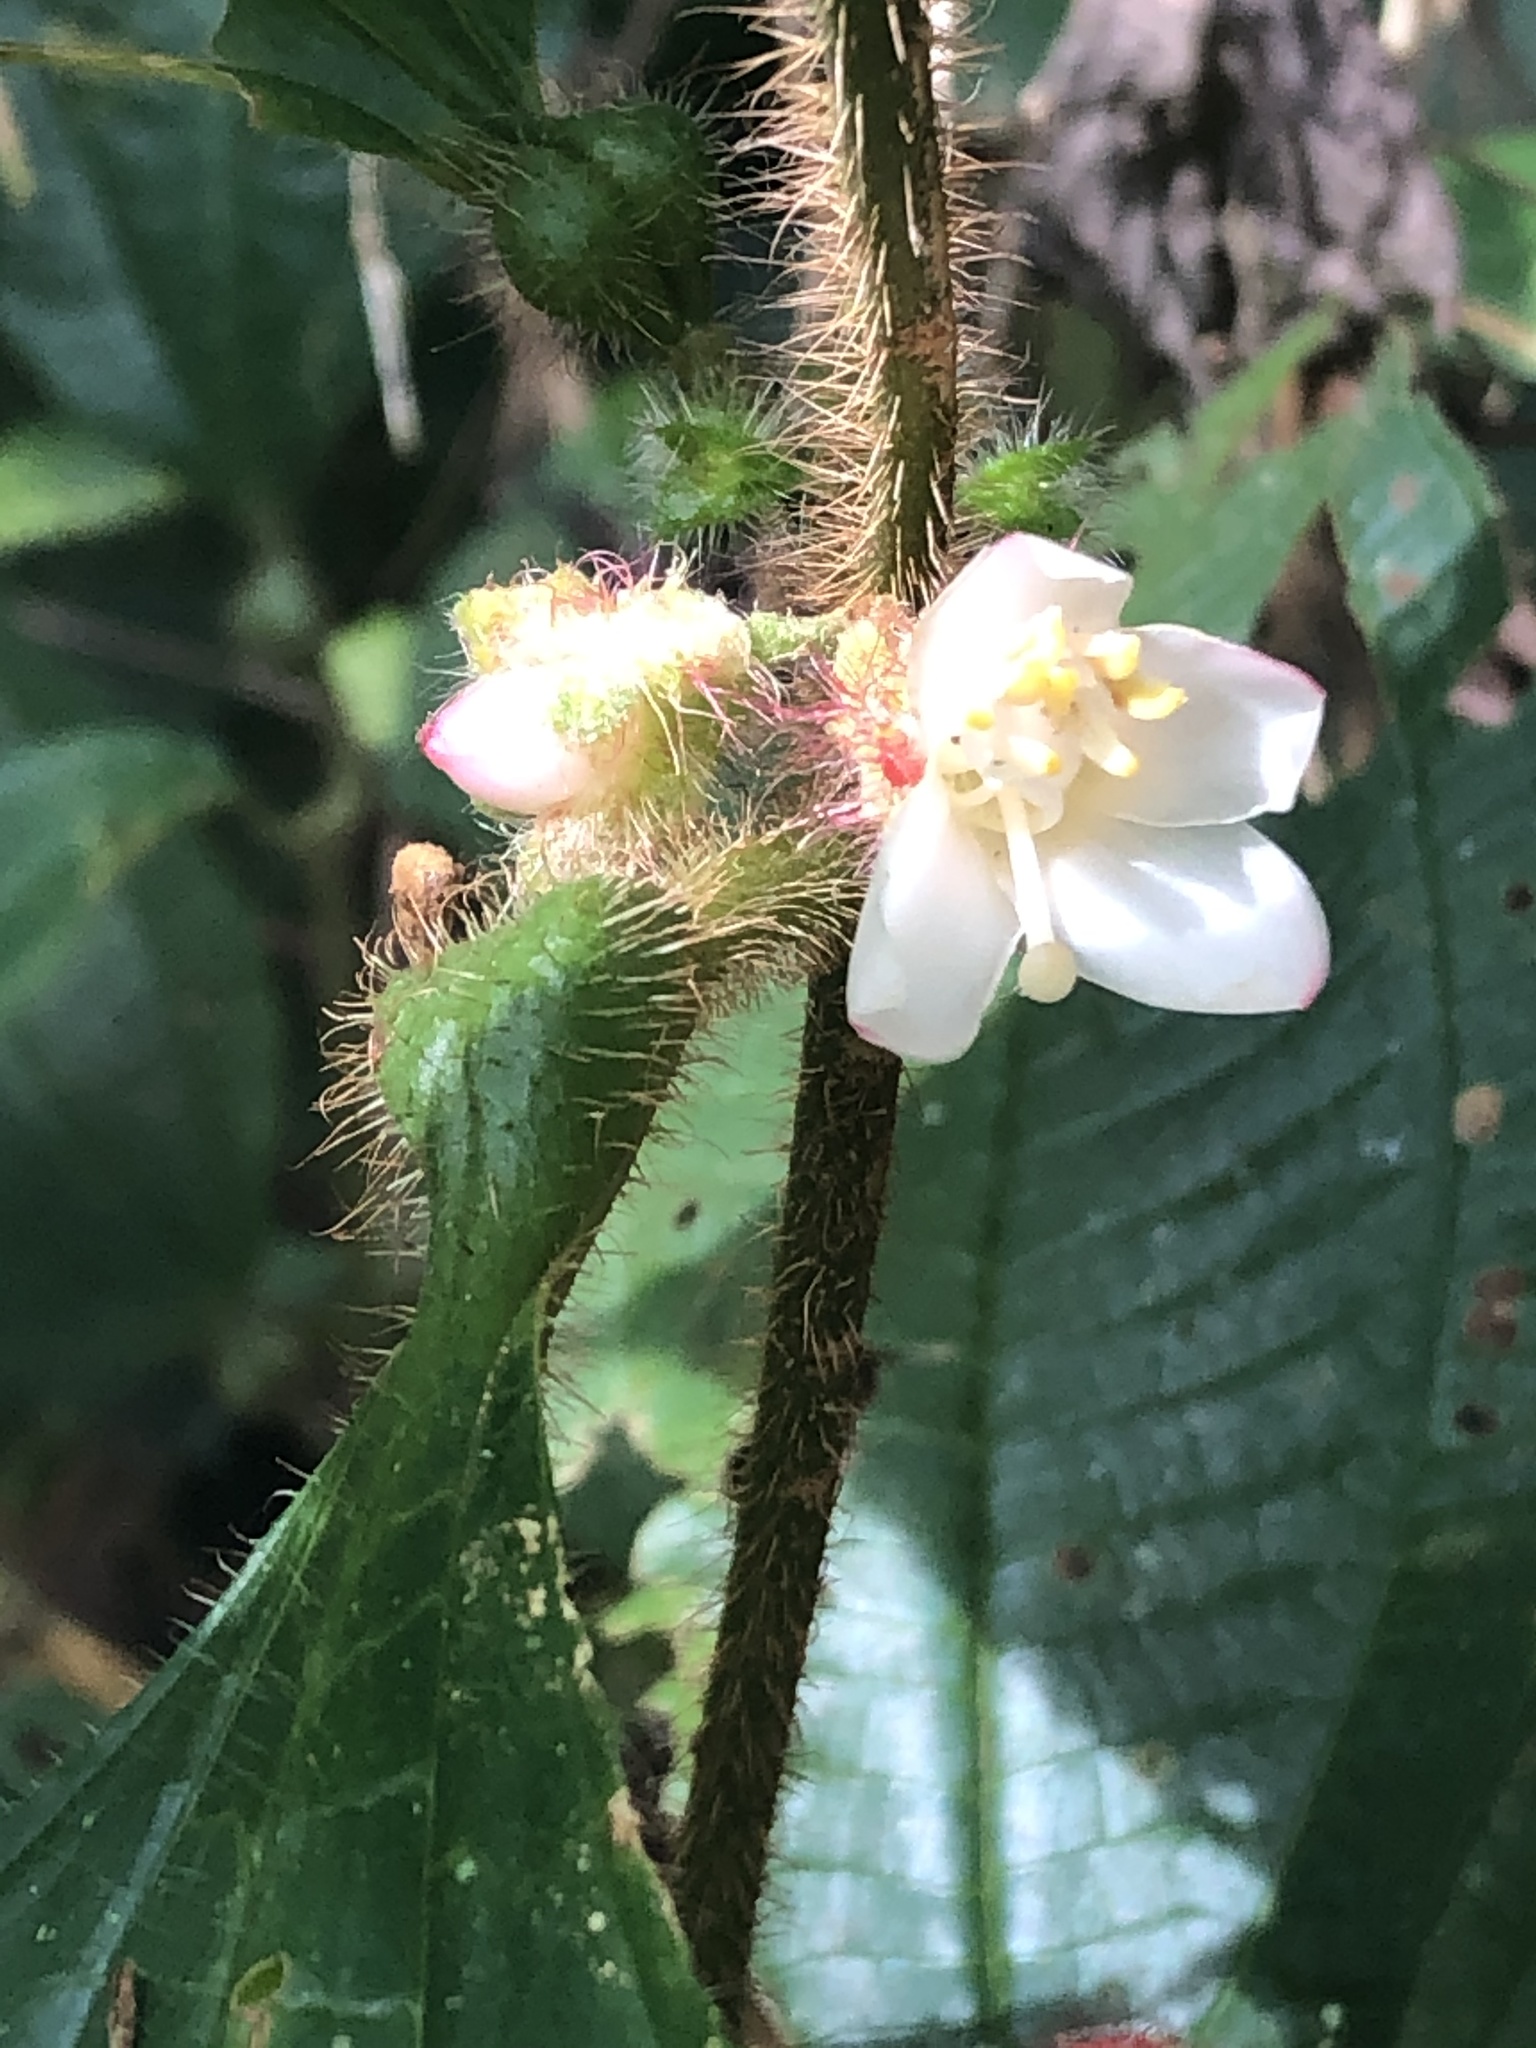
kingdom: Plantae
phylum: Tracheophyta
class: Magnoliopsida
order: Myrtales
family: Melastomataceae
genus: Miconia
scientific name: Miconia microphysca
